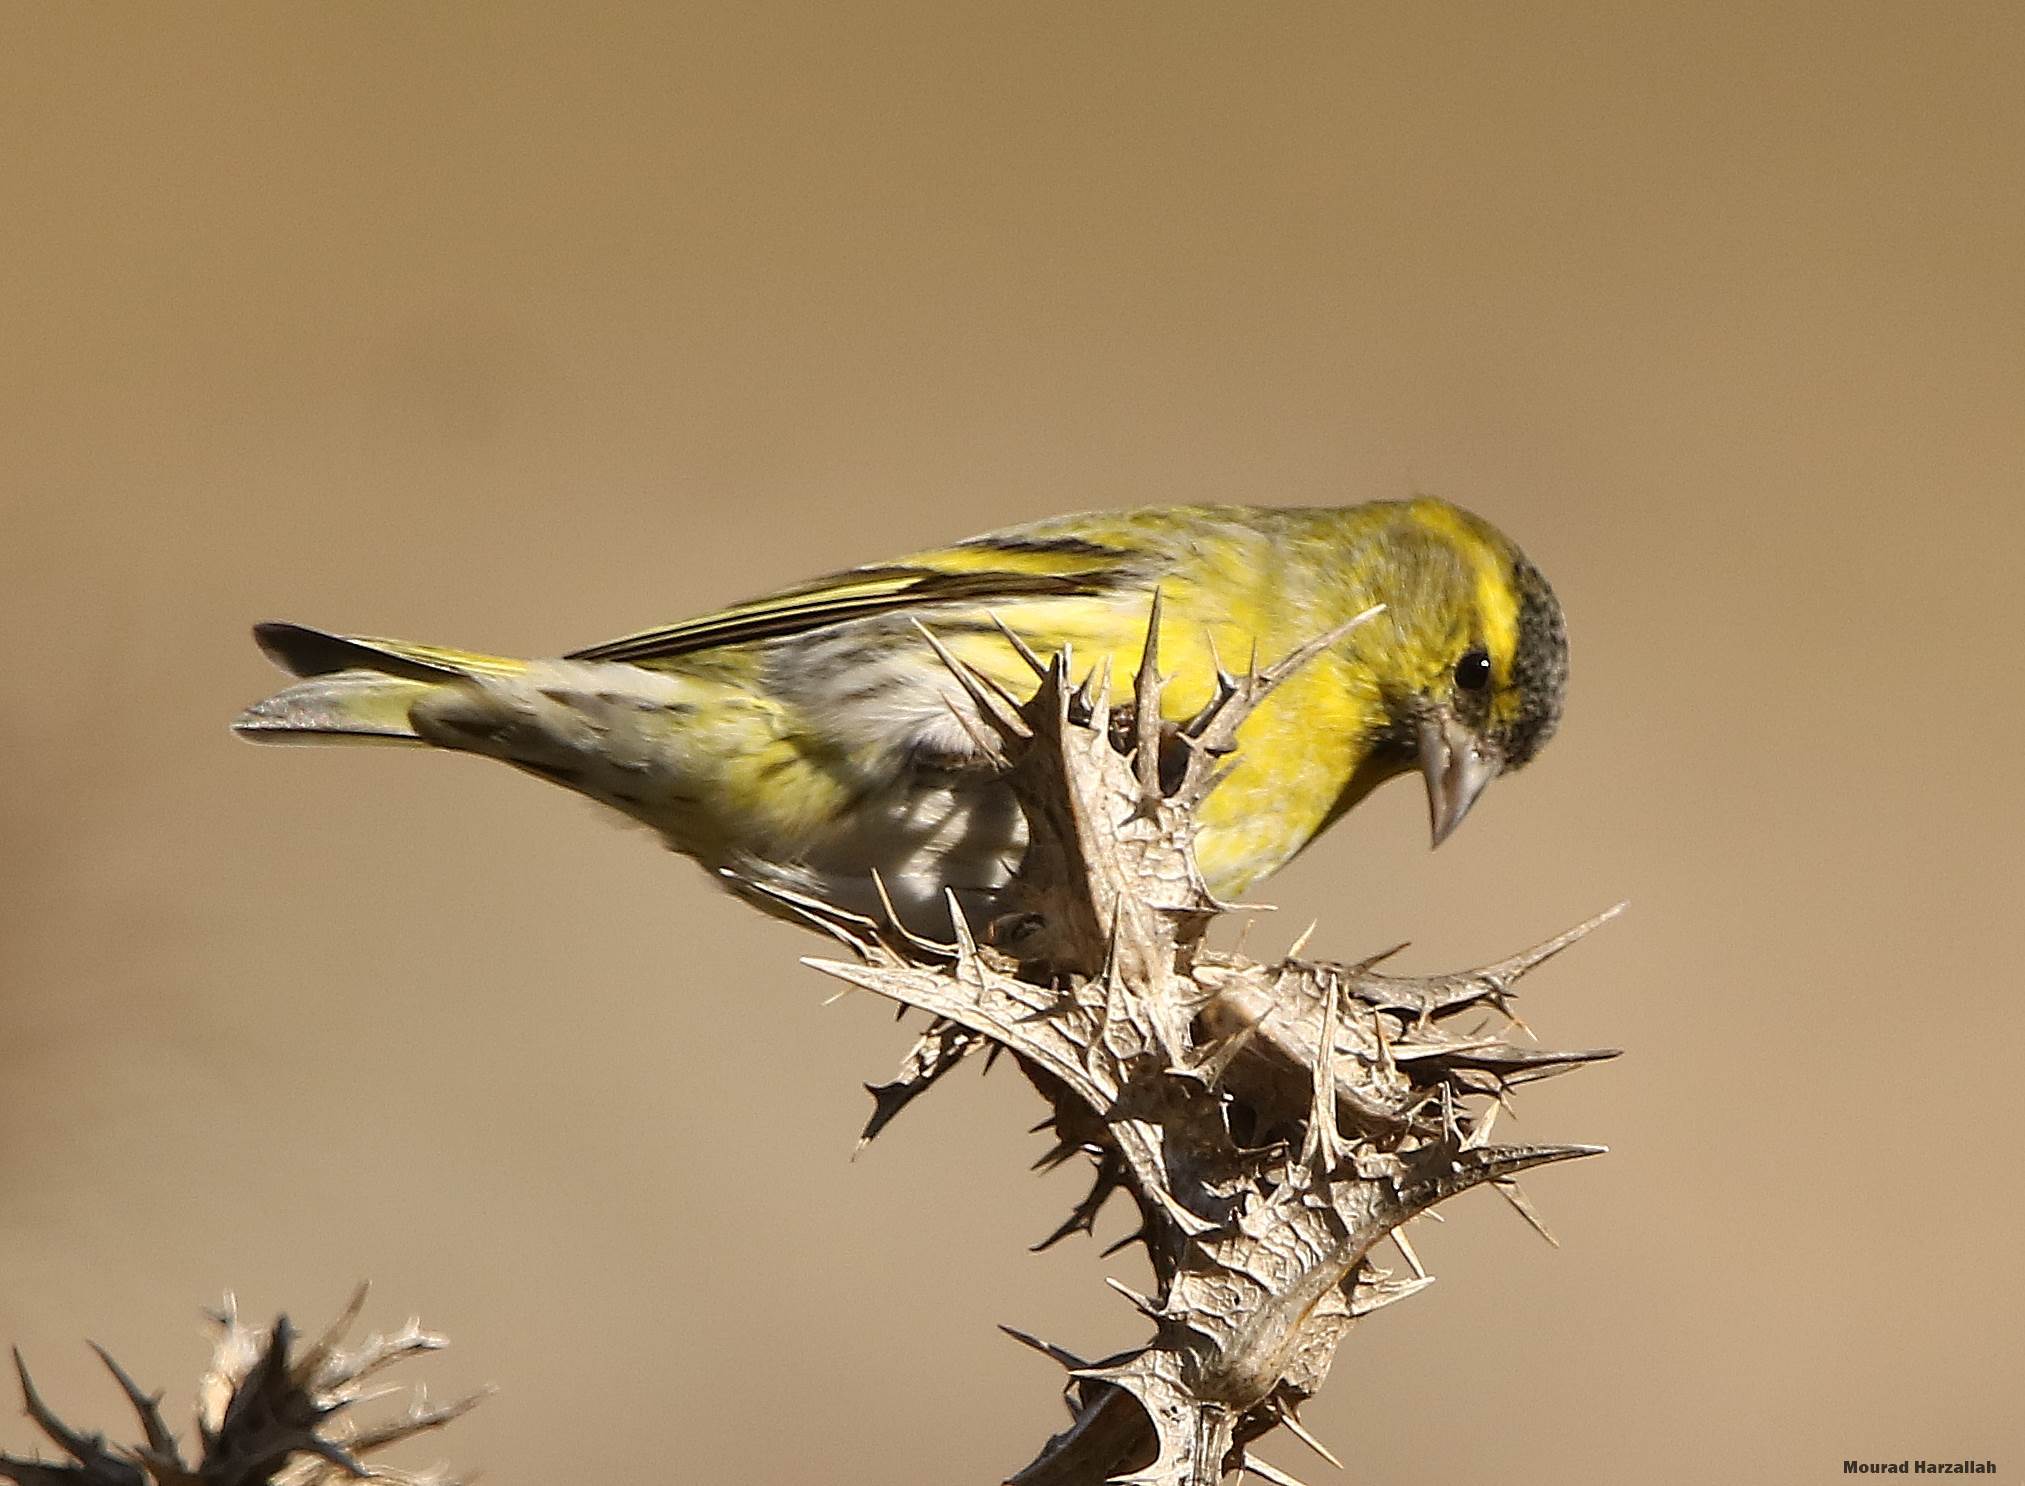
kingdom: Animalia
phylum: Chordata
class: Aves
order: Passeriformes
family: Fringillidae
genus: Spinus
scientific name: Spinus spinus
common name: Eurasian siskin
